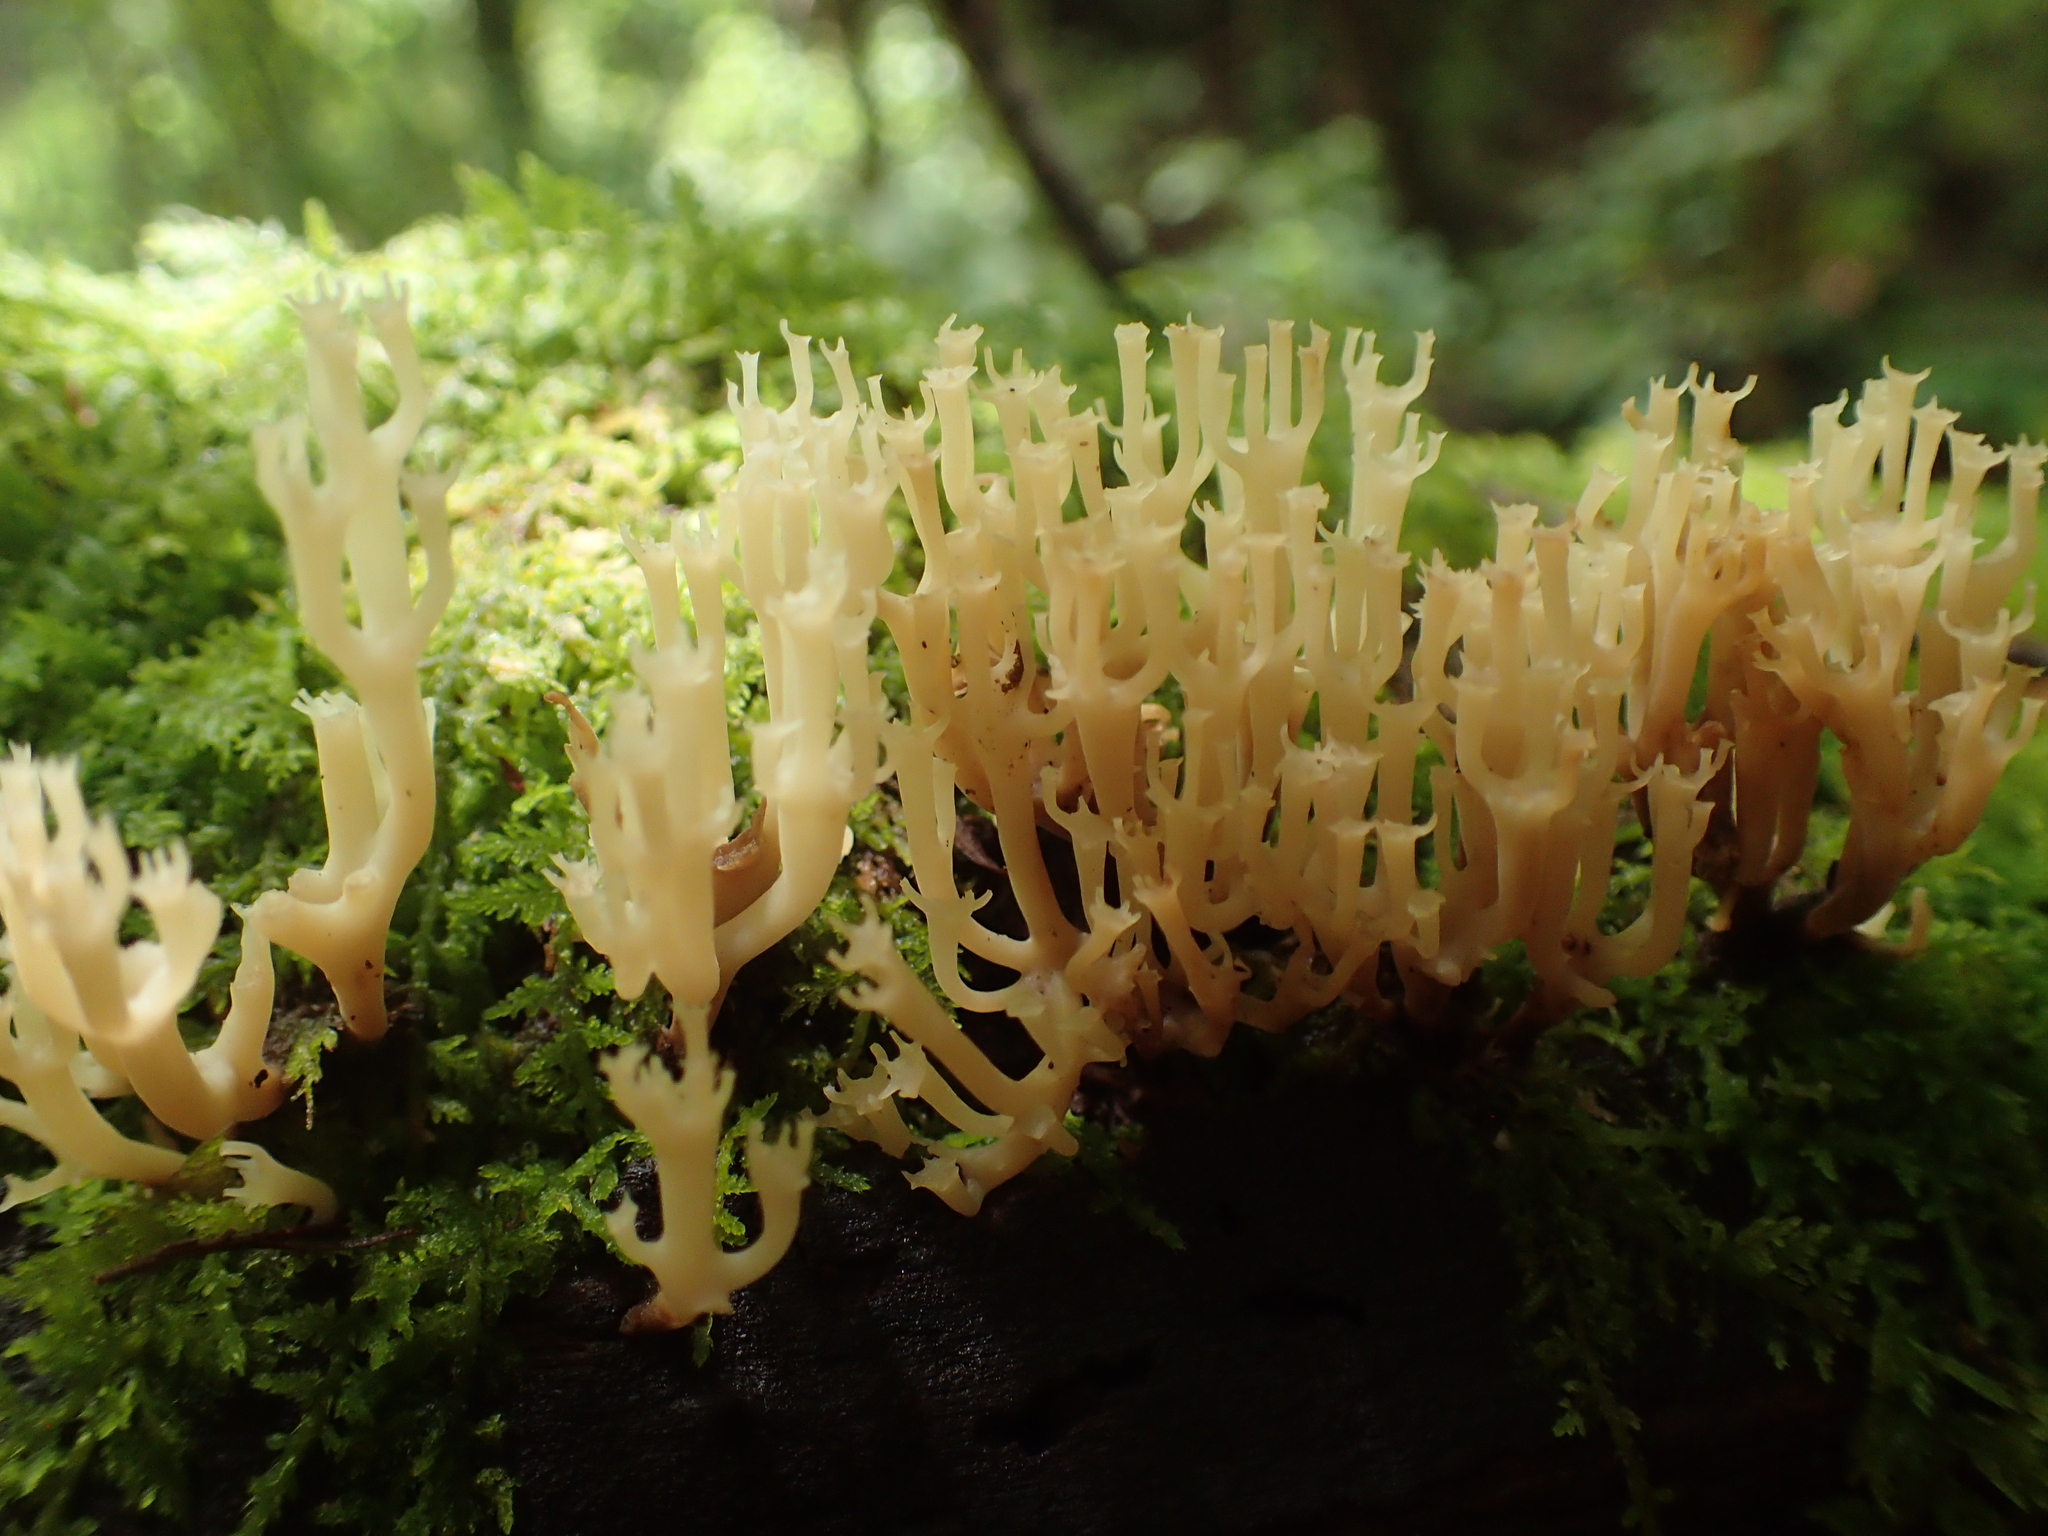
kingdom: Fungi
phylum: Basidiomycota
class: Agaricomycetes
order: Russulales
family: Auriscalpiaceae
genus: Artomyces
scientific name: Artomyces pyxidatus
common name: Crown-tipped coral fungus
